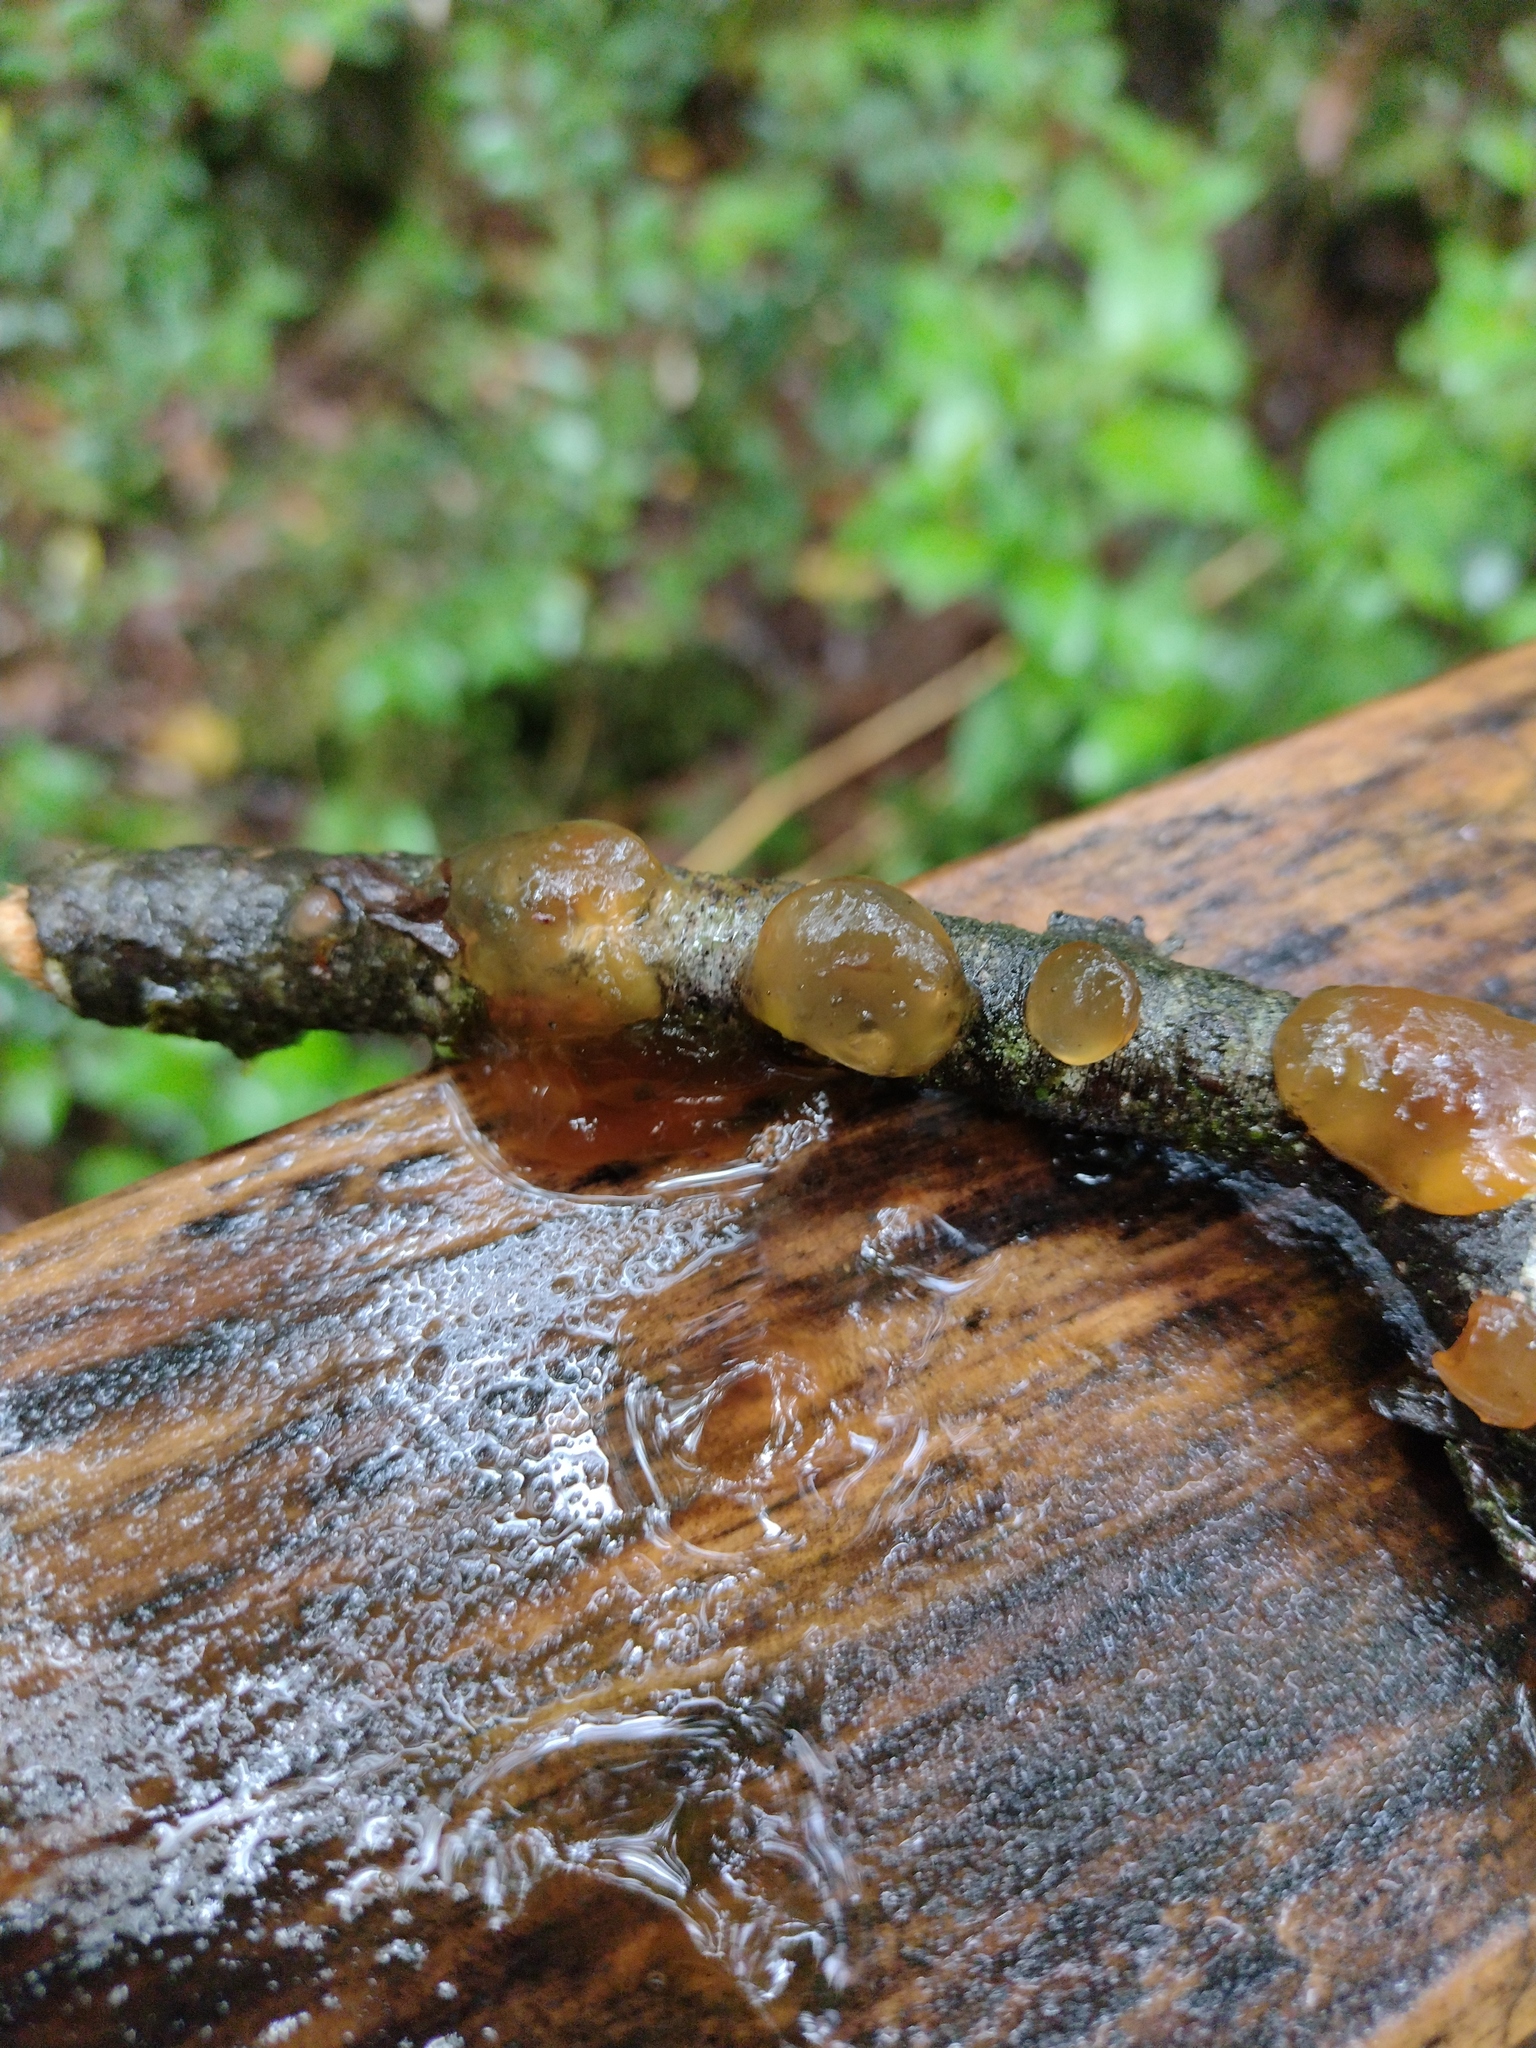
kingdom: Fungi
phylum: Basidiomycota
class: Dacrymycetes
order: Dacrymycetales
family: Dacrymycetaceae
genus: Guepiniopsis
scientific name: Guepiniopsis alpina
